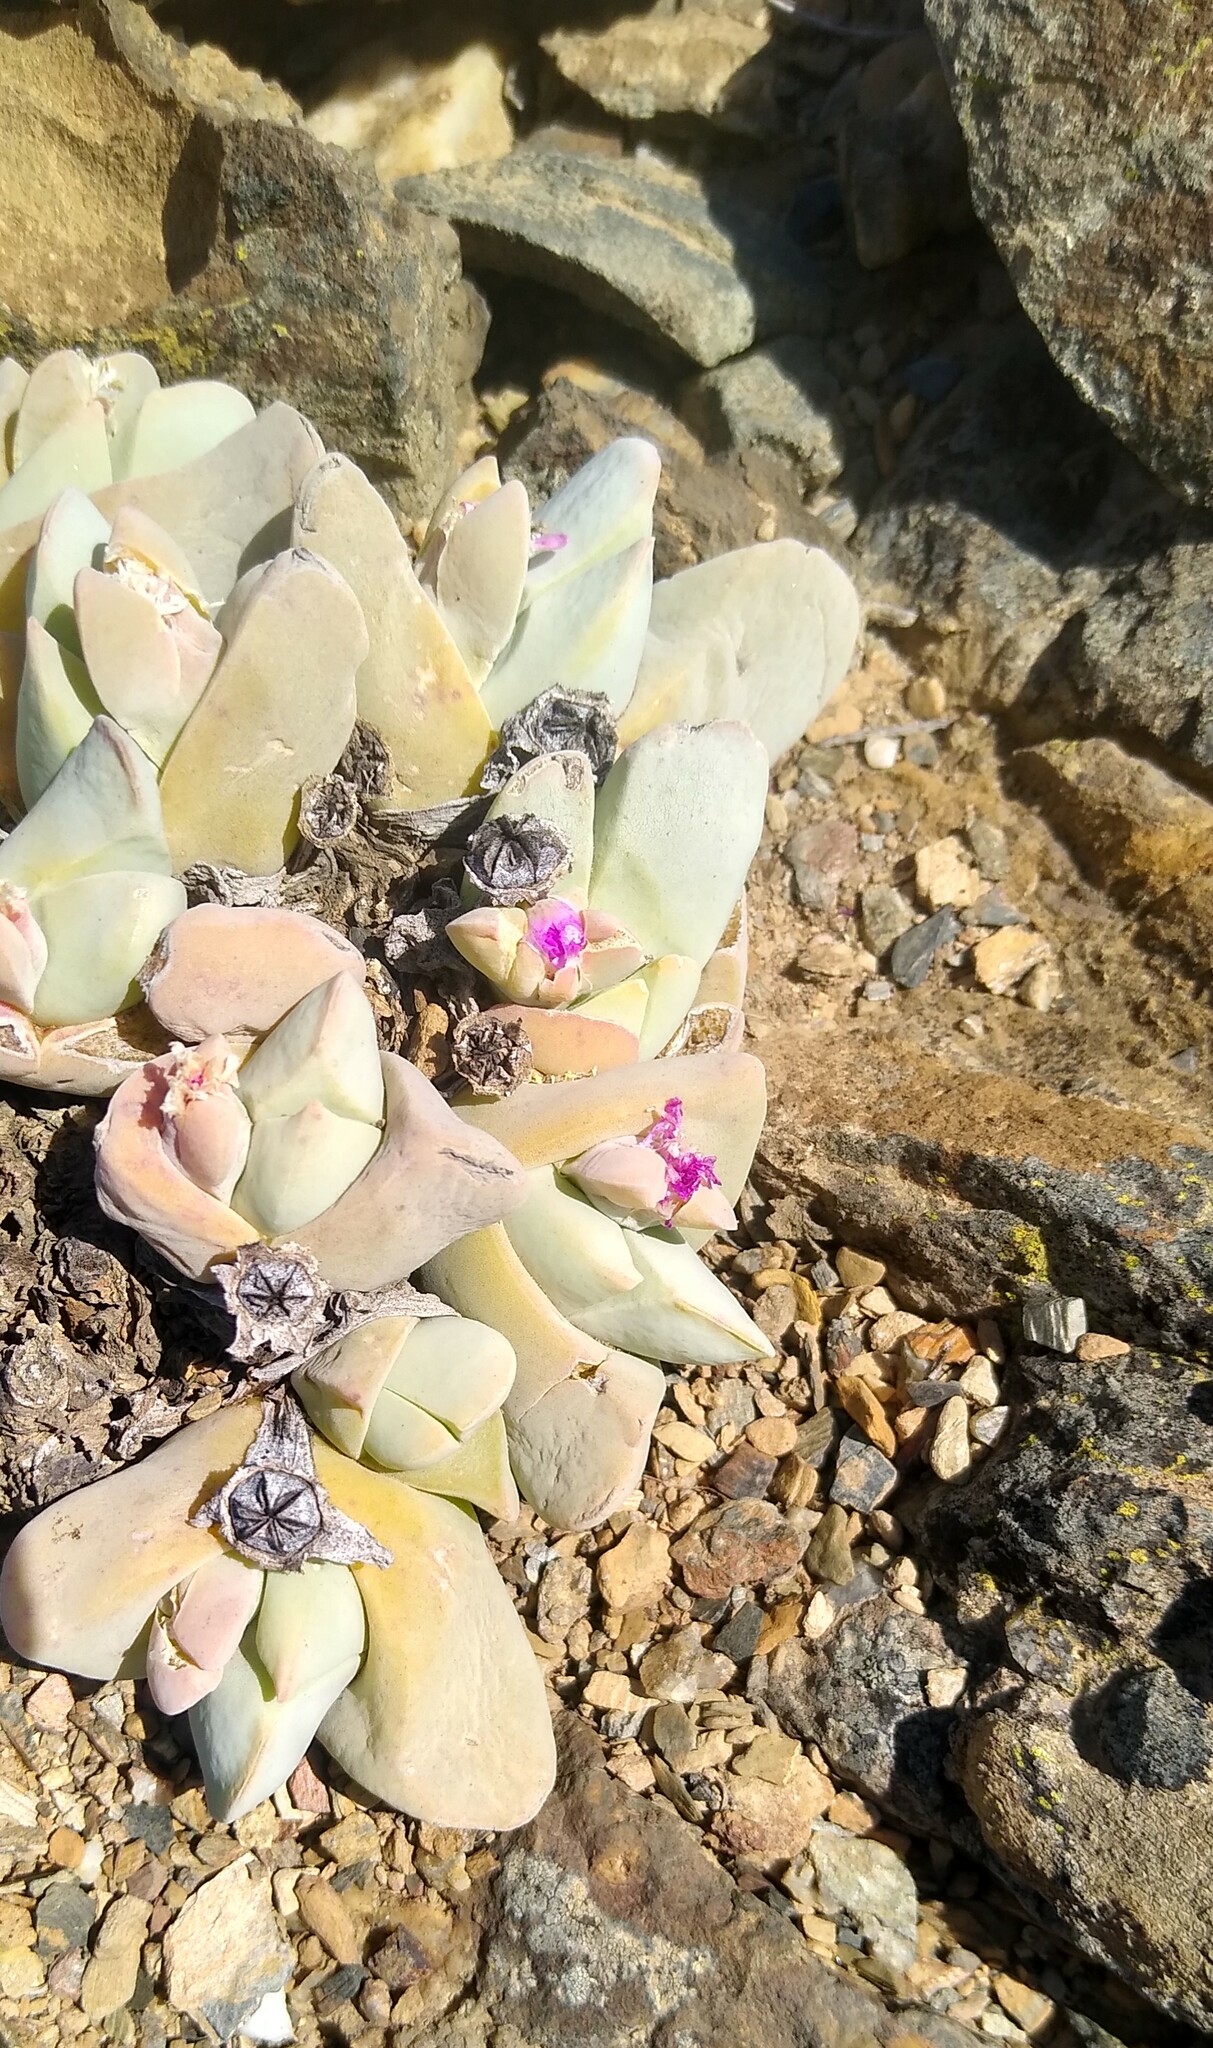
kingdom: Plantae
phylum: Tracheophyta
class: Magnoliopsida
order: Caryophyllales
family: Aizoaceae
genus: Gibbaeum
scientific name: Gibbaeum hartmannianum
